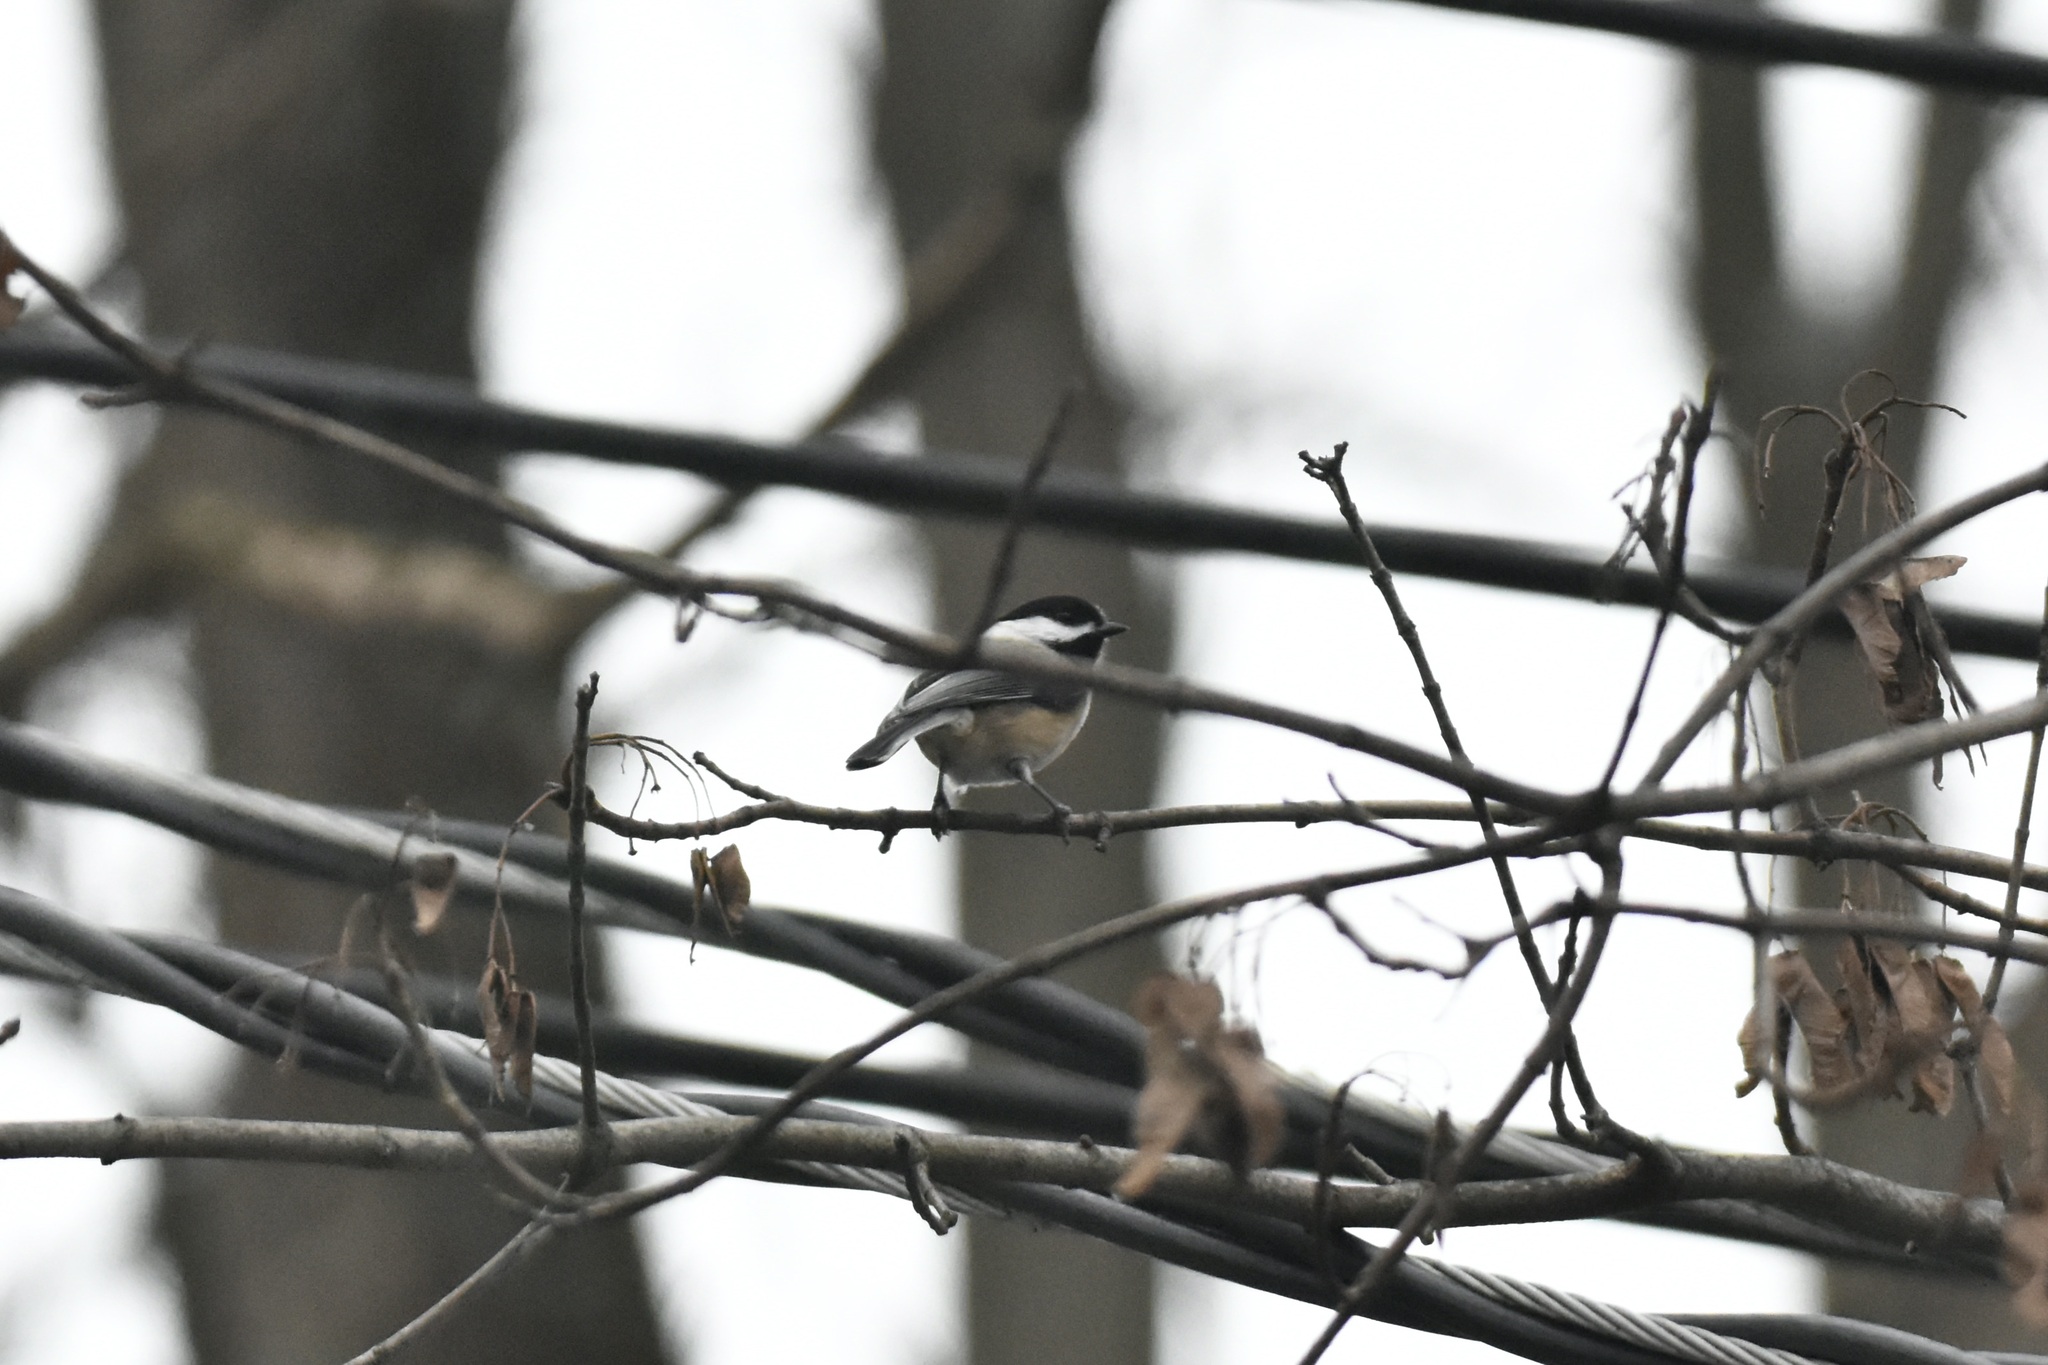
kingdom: Animalia
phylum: Chordata
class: Aves
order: Passeriformes
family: Paridae
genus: Poecile
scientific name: Poecile atricapillus
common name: Black-capped chickadee
